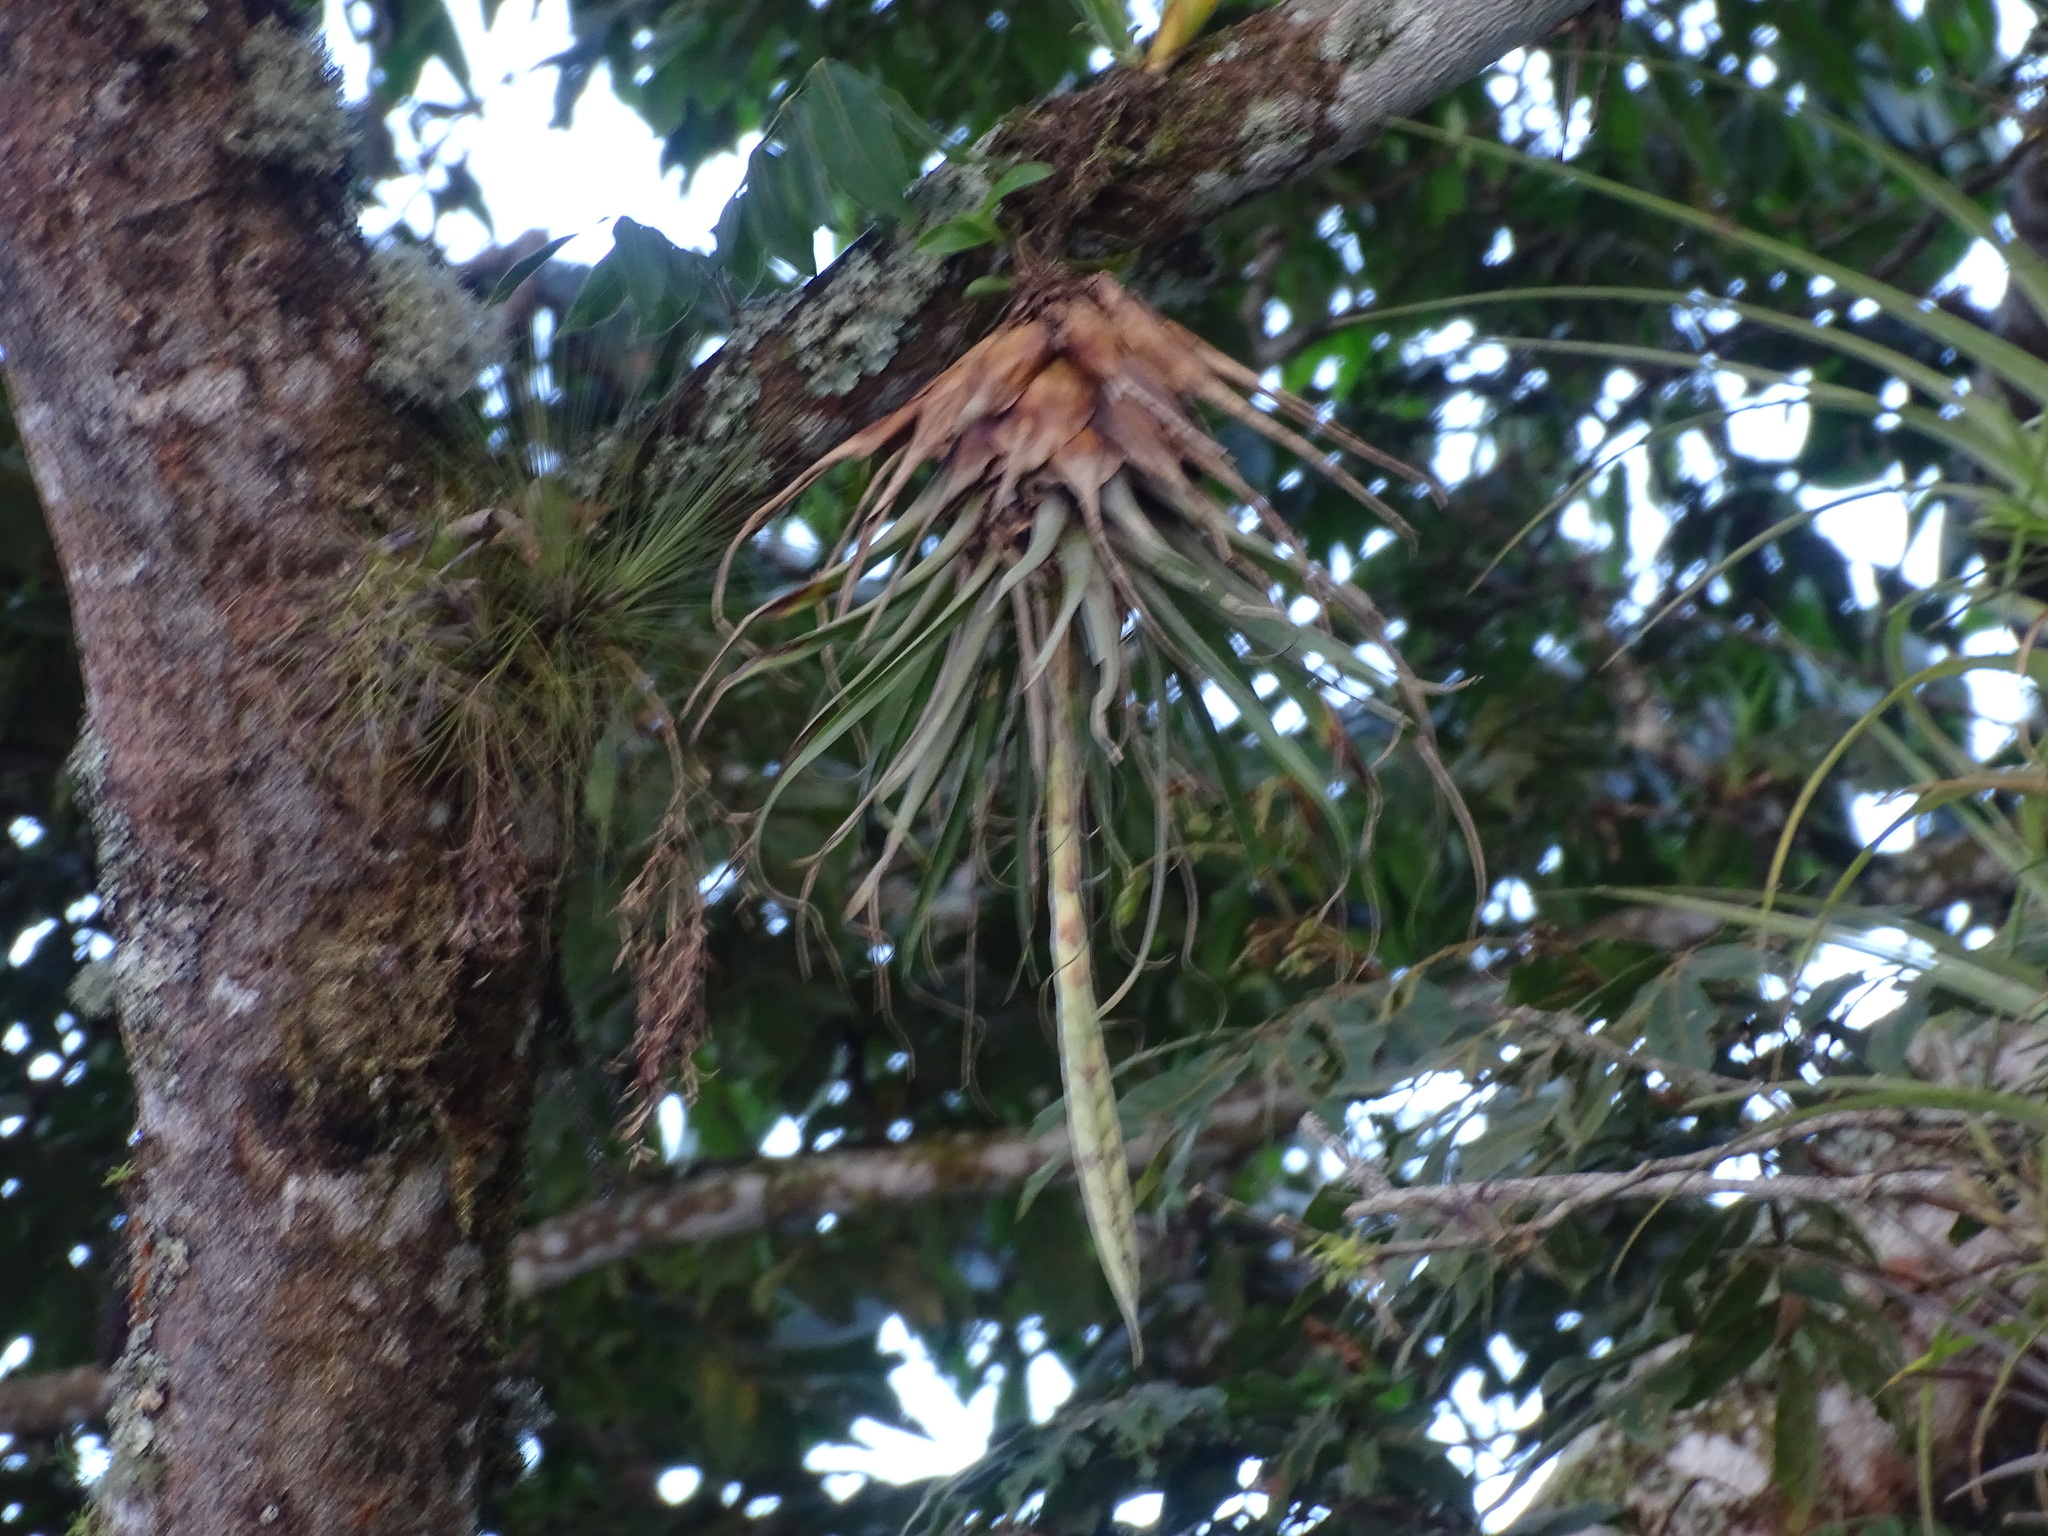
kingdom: Plantae
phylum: Tracheophyta
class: Liliopsida
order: Poales
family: Bromeliaceae
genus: Tillandsia
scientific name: Tillandsia lampropoda
